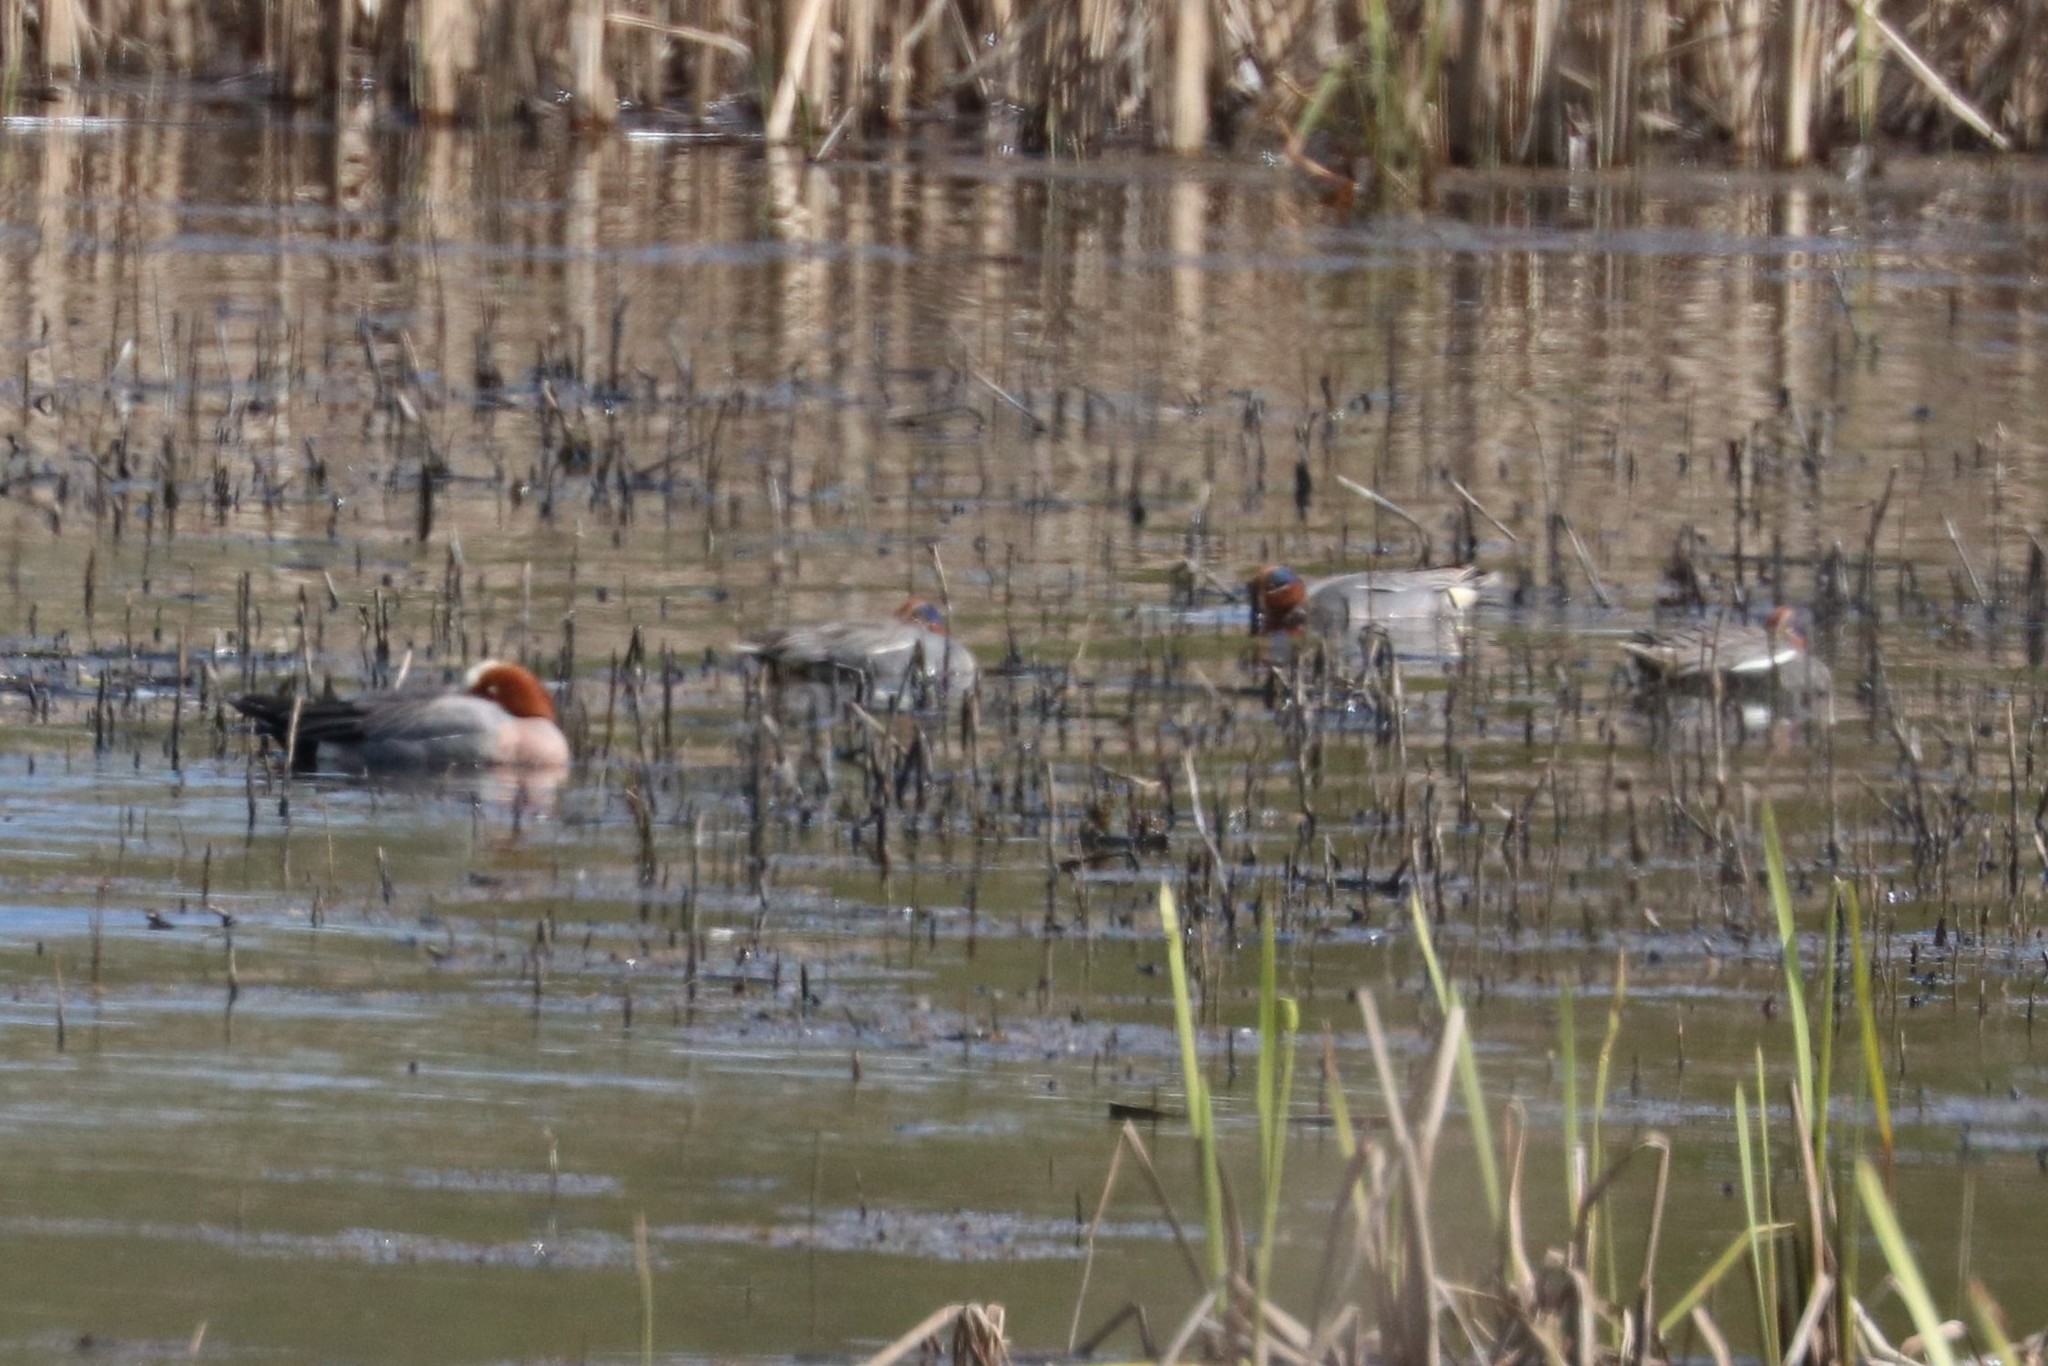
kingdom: Animalia
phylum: Chordata
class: Aves
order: Anseriformes
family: Anatidae
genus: Anas
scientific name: Anas crecca
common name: Eurasian teal
